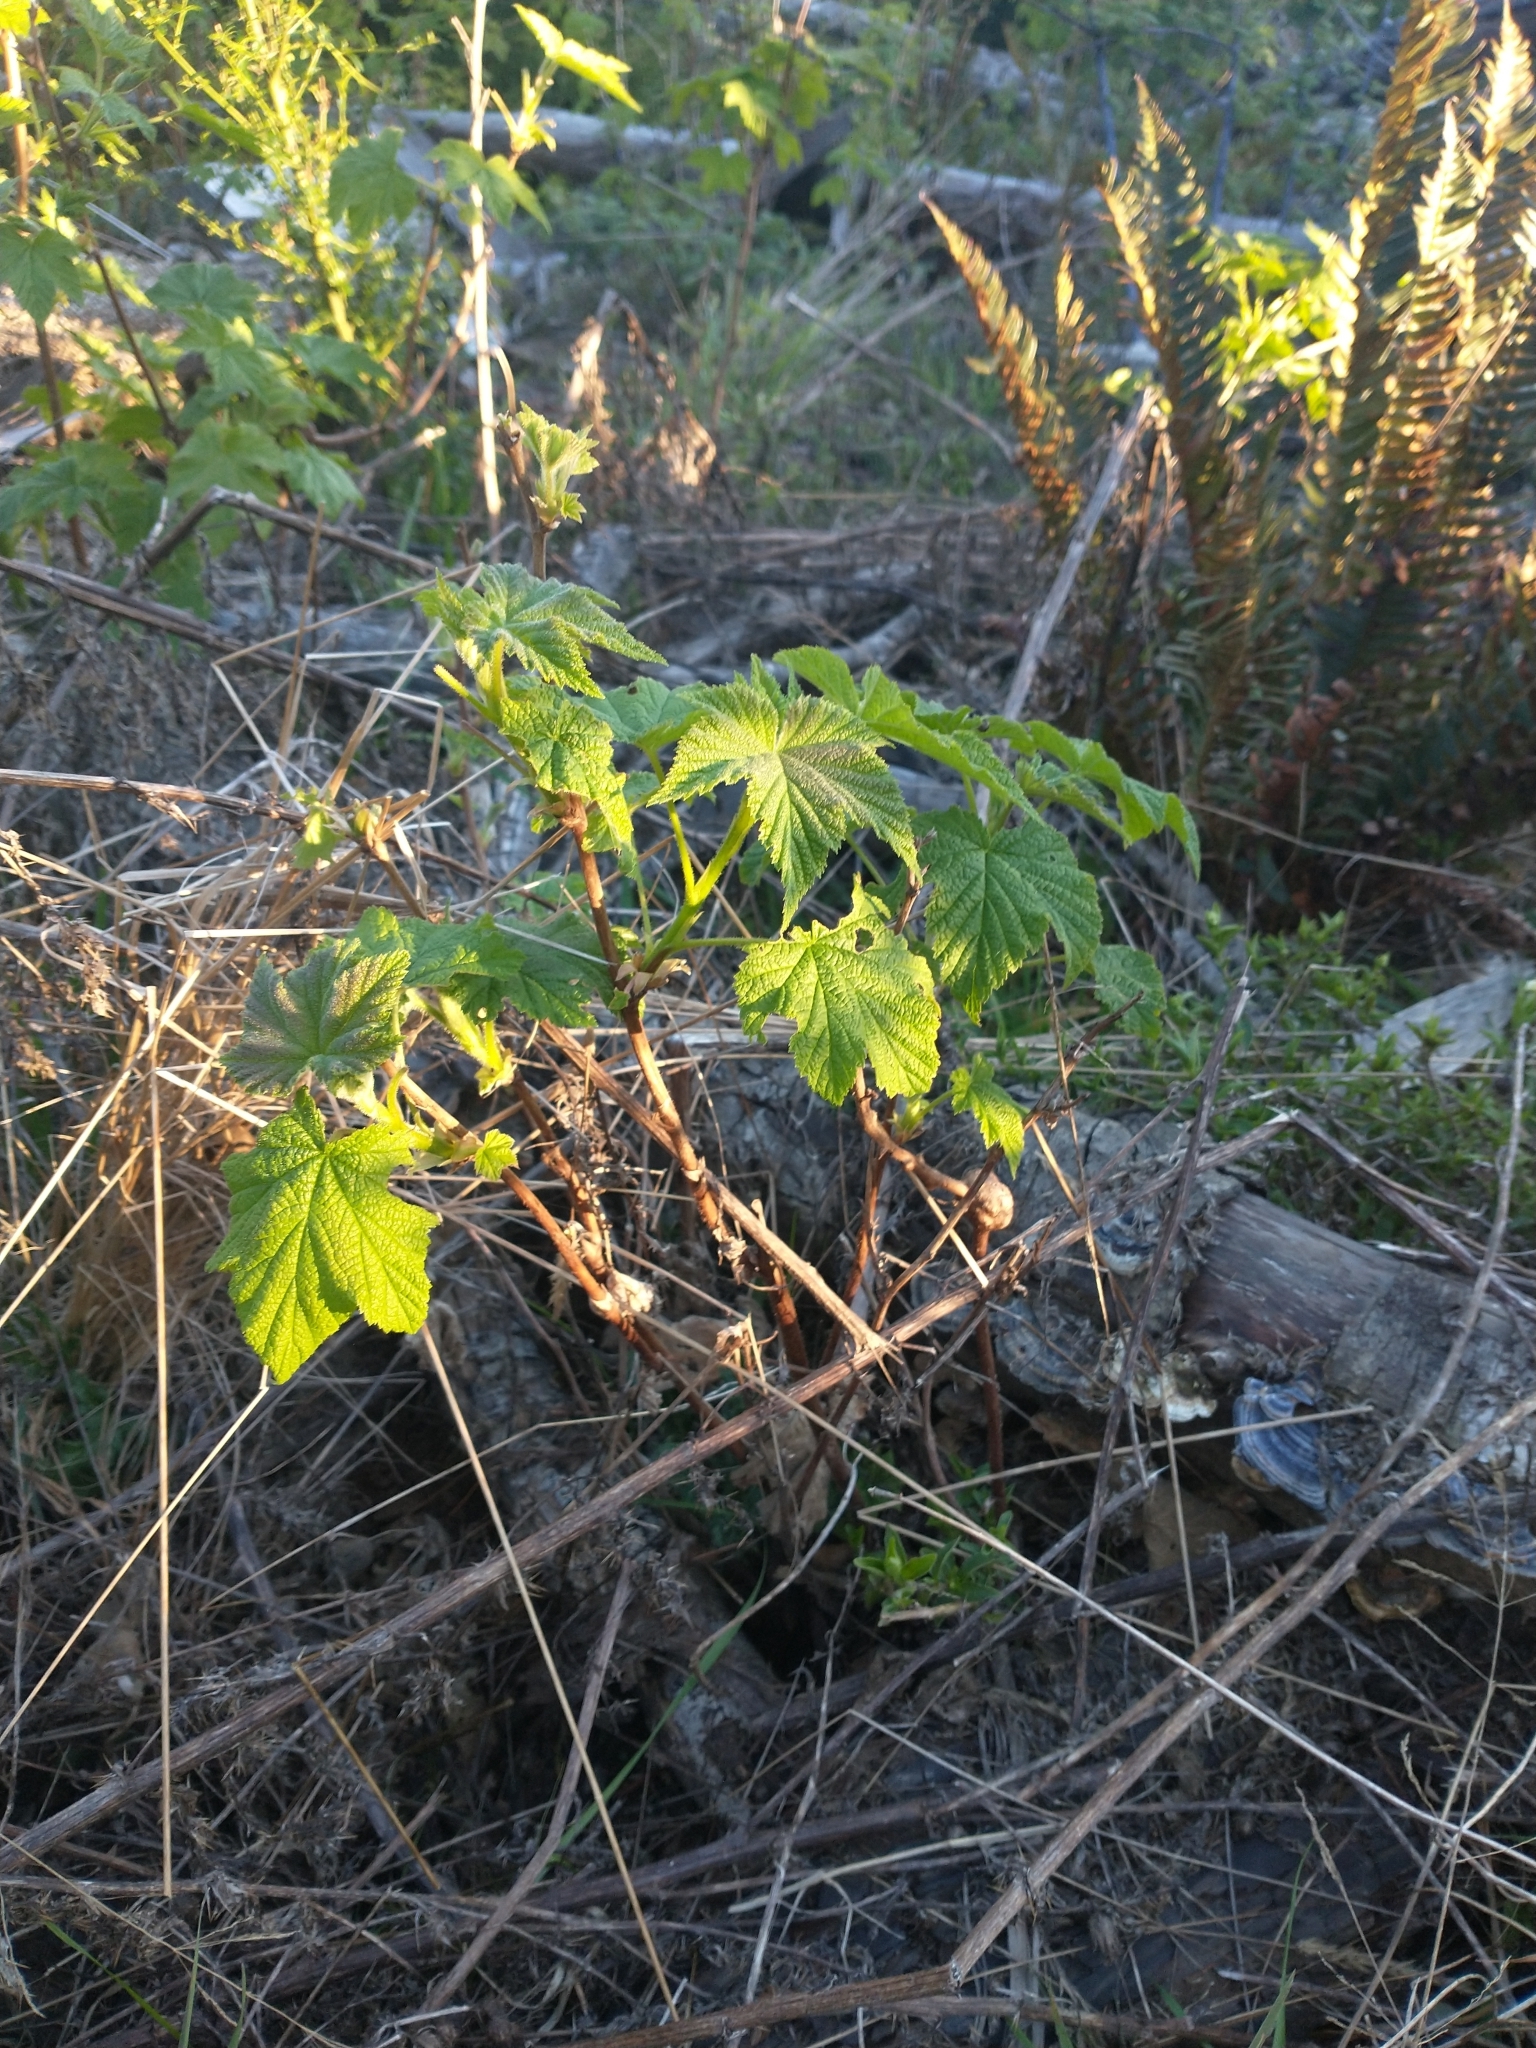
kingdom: Plantae
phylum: Tracheophyta
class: Magnoliopsida
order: Rosales
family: Rosaceae
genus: Rubus
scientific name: Rubus parviflorus
